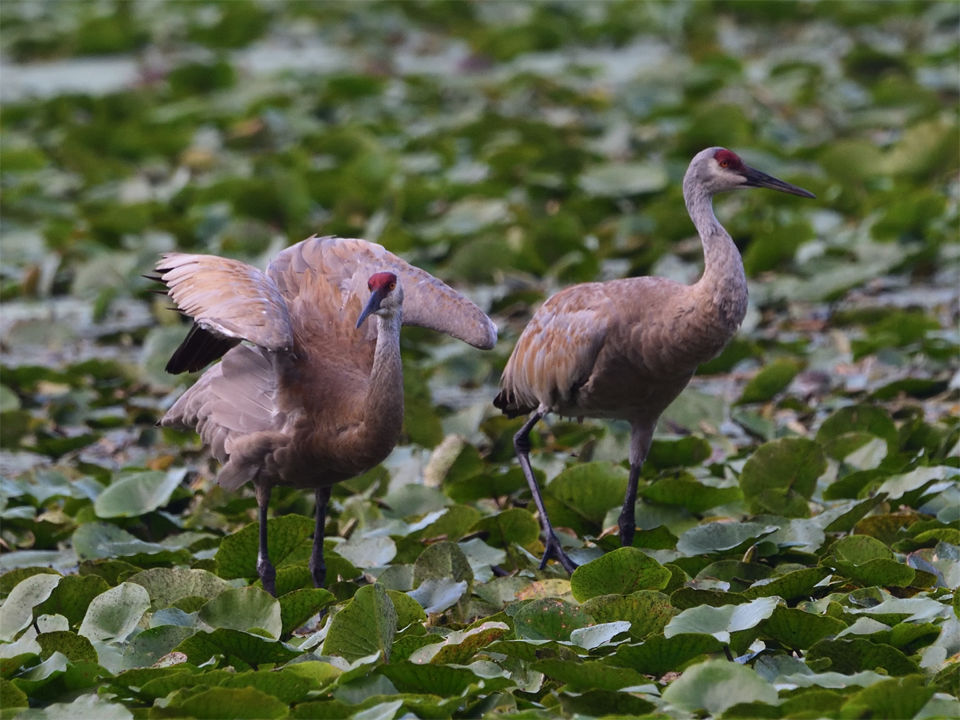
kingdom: Animalia
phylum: Chordata
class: Aves
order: Gruiformes
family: Gruidae
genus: Grus
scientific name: Grus canadensis
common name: Sandhill crane
